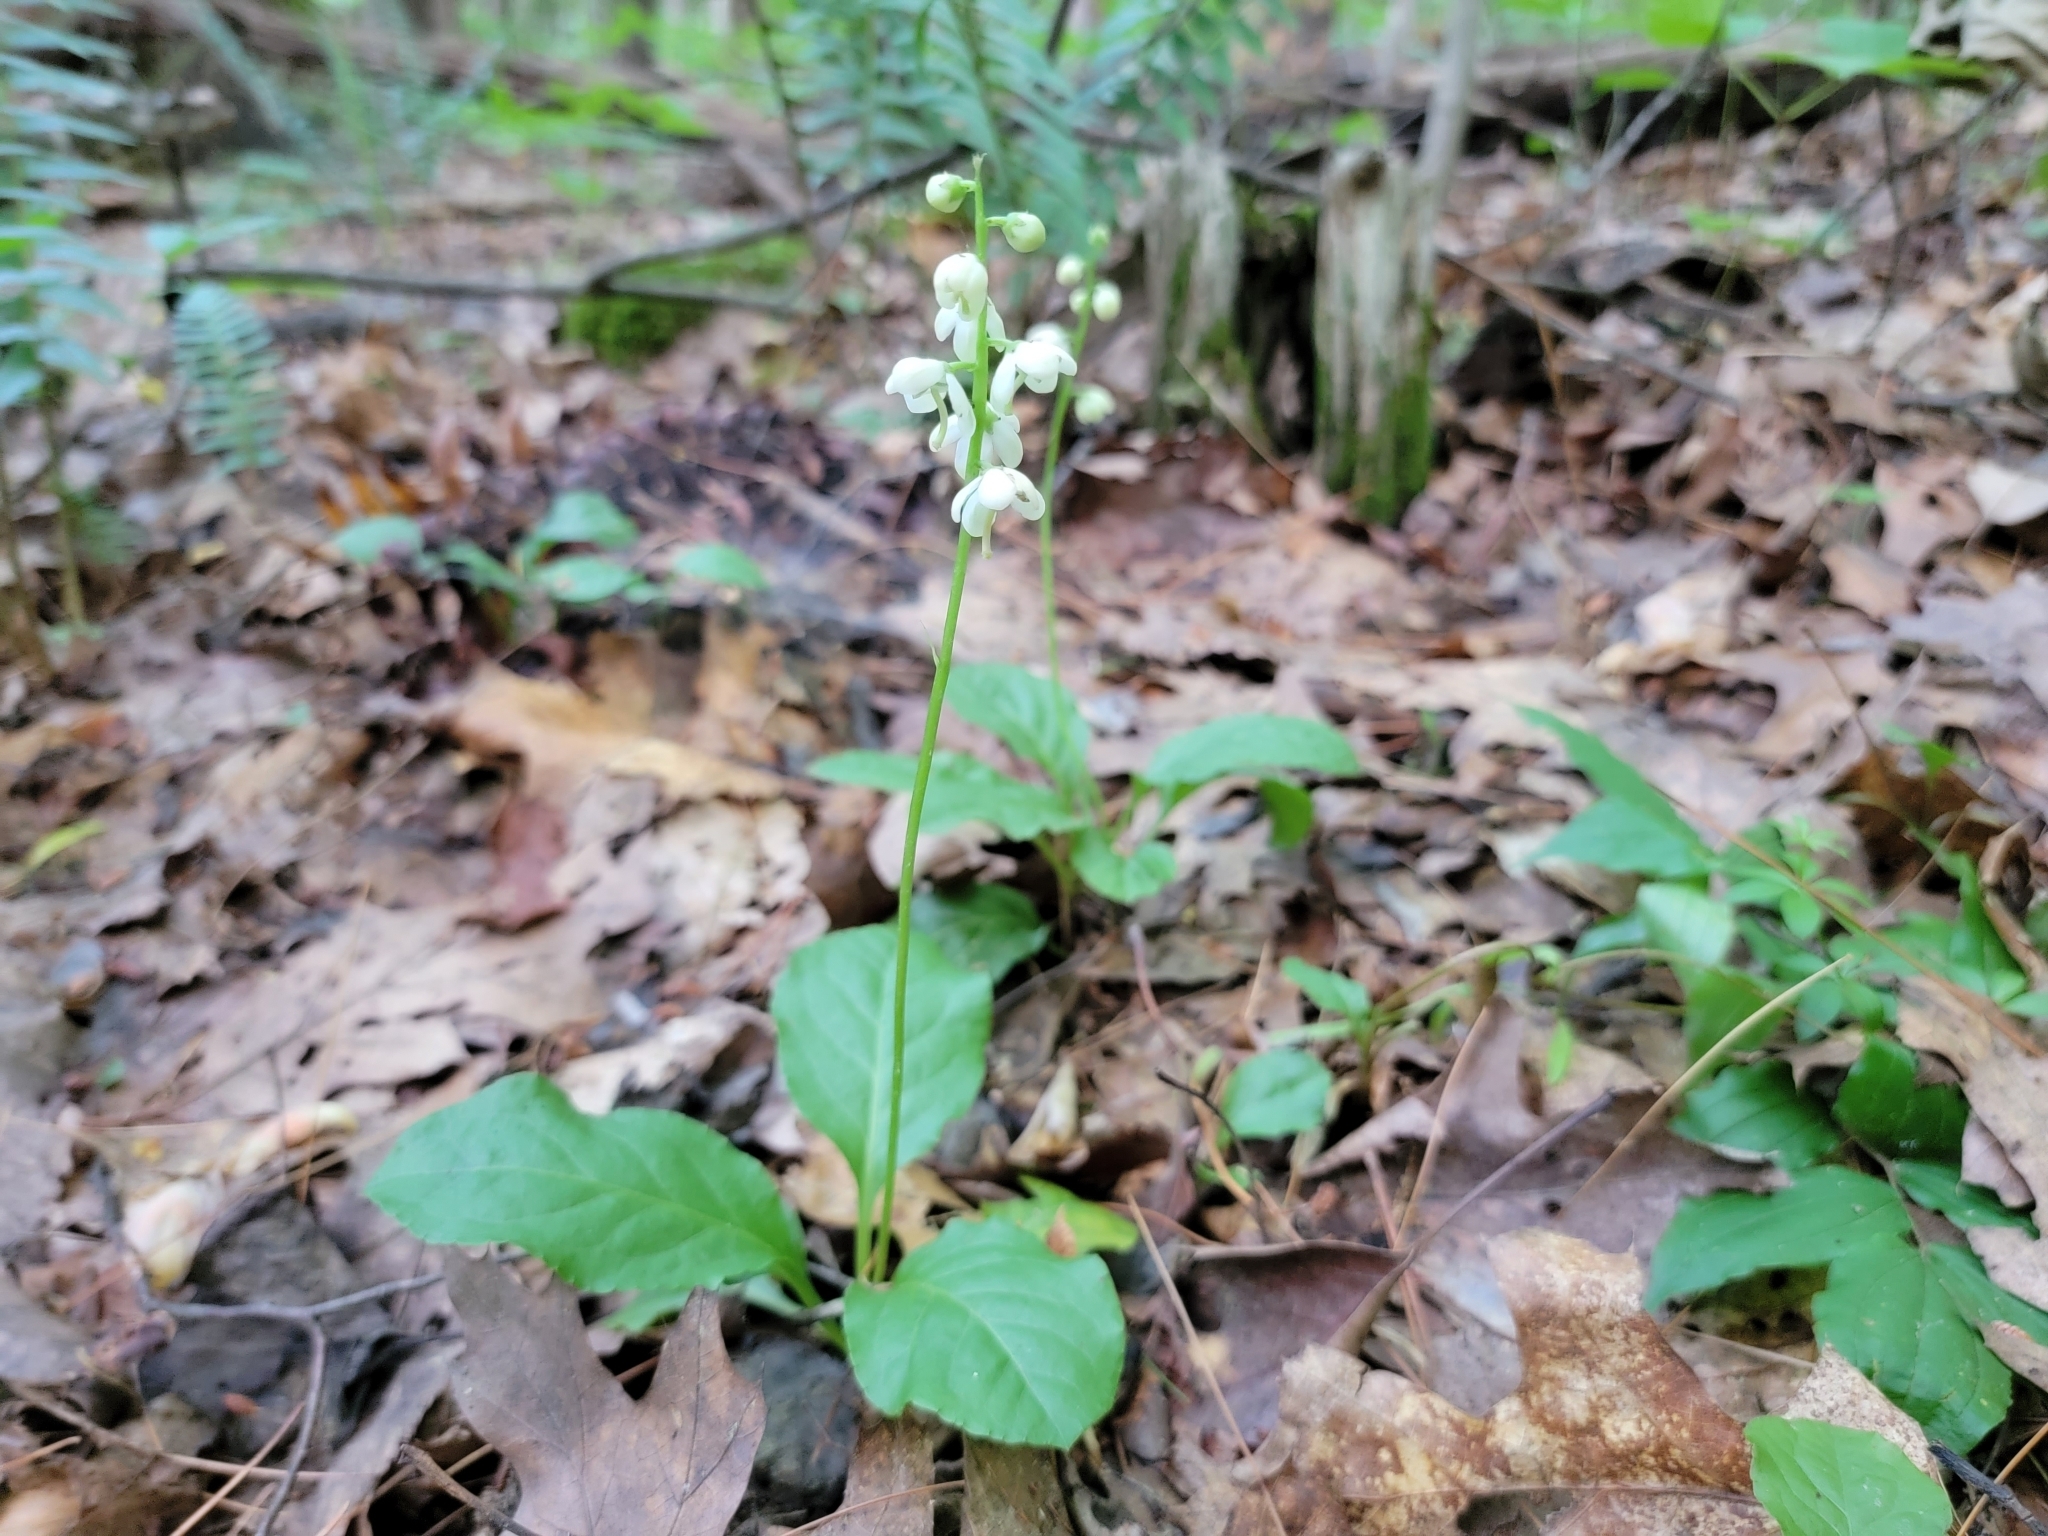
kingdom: Plantae
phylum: Tracheophyta
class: Magnoliopsida
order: Ericales
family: Ericaceae
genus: Pyrola
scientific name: Pyrola elliptica
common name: Shinleaf
